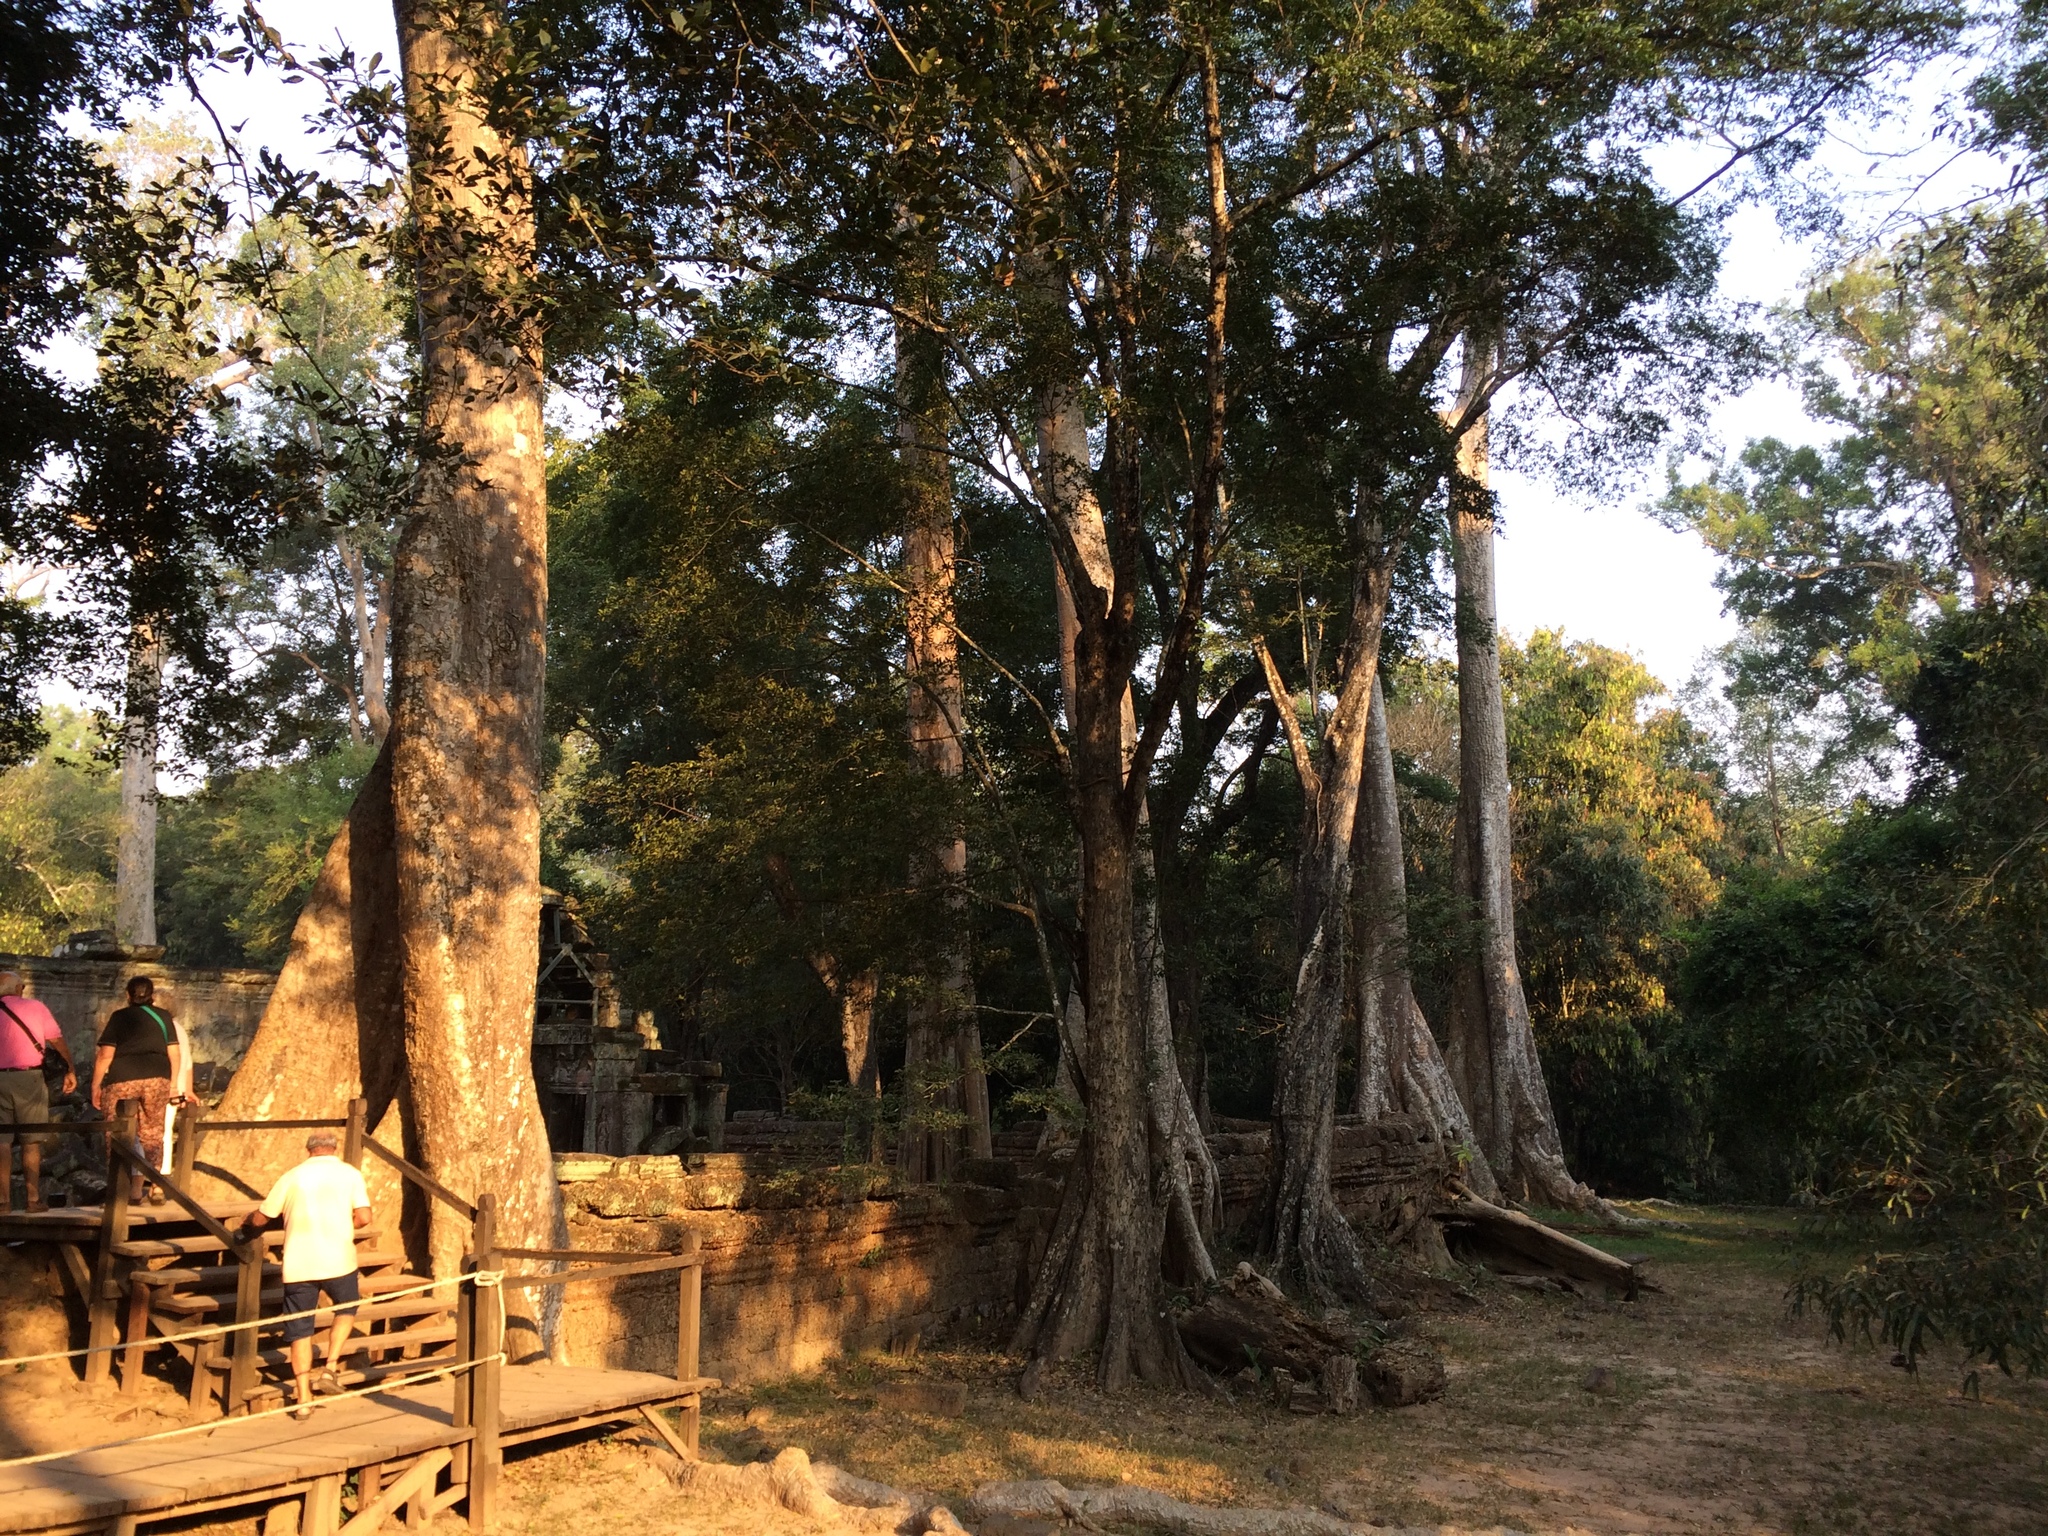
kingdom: Plantae
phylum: Tracheophyta
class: Magnoliopsida
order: Cucurbitales
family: Tetramelaceae
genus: Tetrameles
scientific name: Tetrameles nudiflora
